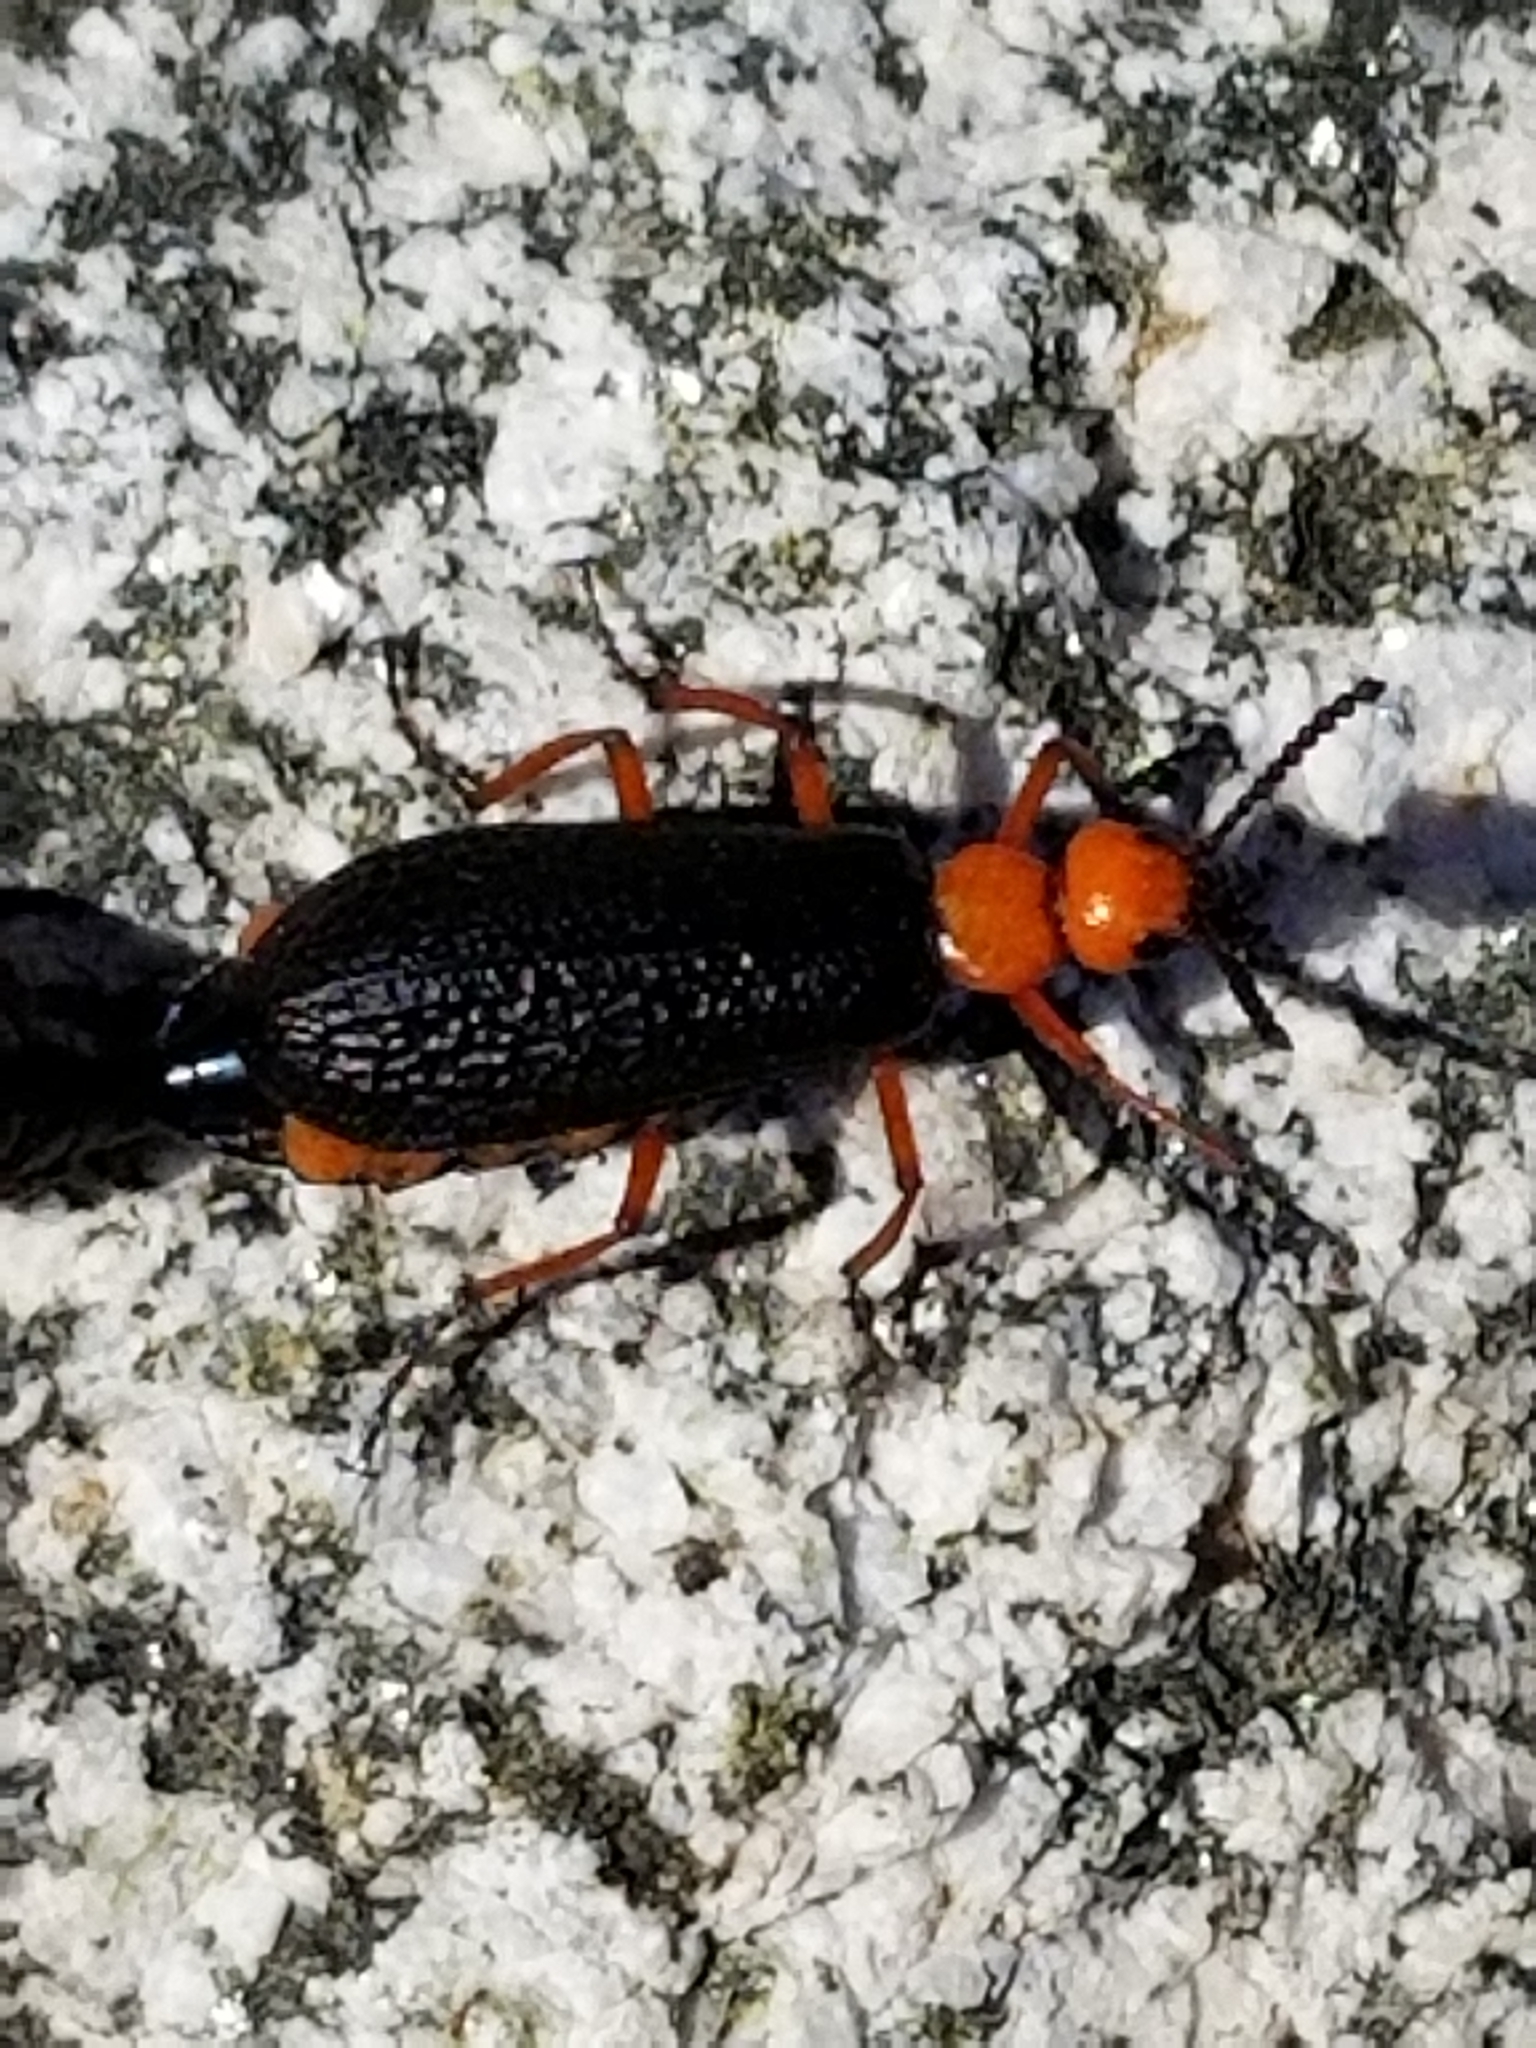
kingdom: Animalia
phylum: Arthropoda
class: Insecta
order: Coleoptera
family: Meloidae
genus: Lytta
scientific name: Lytta magister
